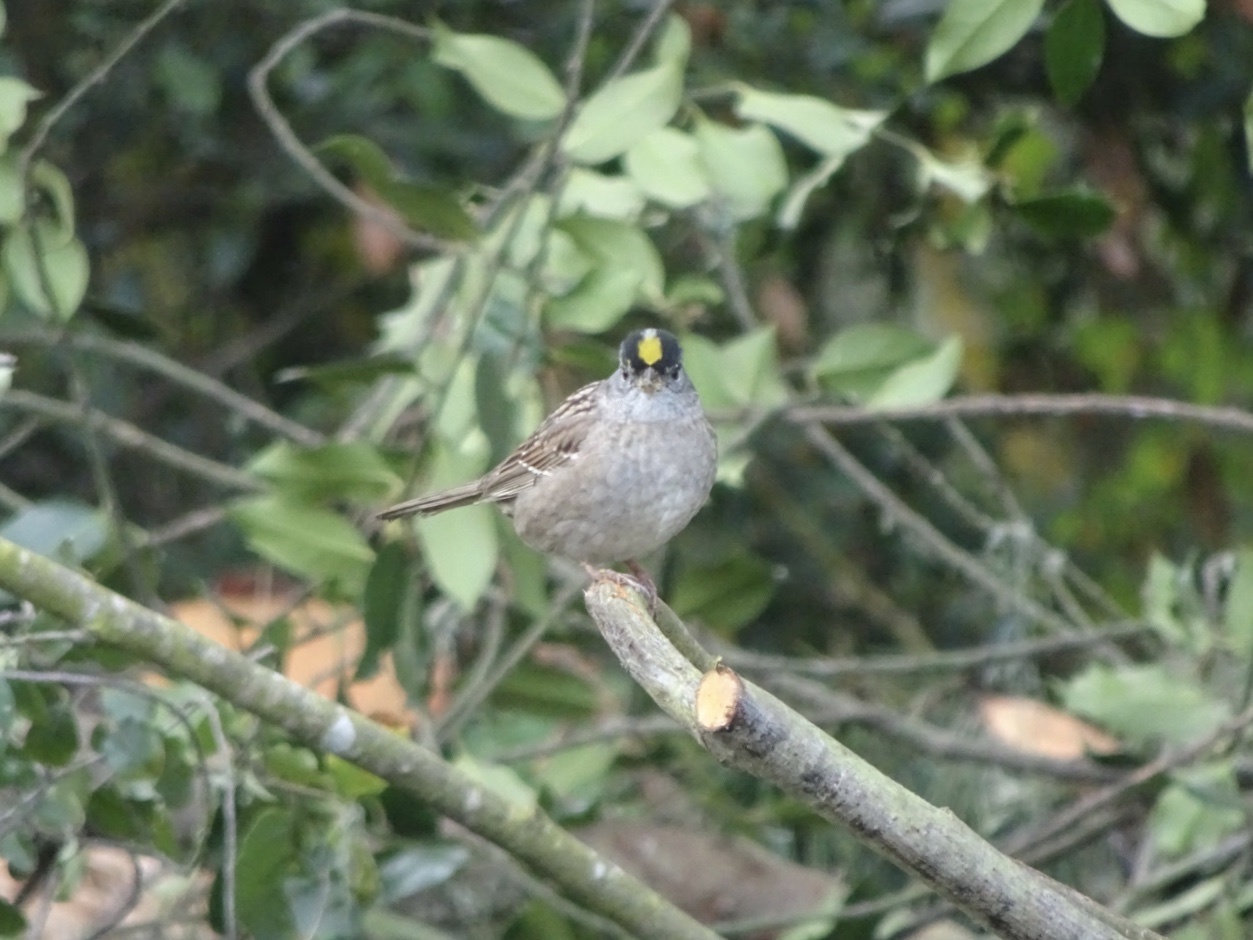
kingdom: Animalia
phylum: Chordata
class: Aves
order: Passeriformes
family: Passerellidae
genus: Zonotrichia
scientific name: Zonotrichia atricapilla
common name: Golden-crowned sparrow
